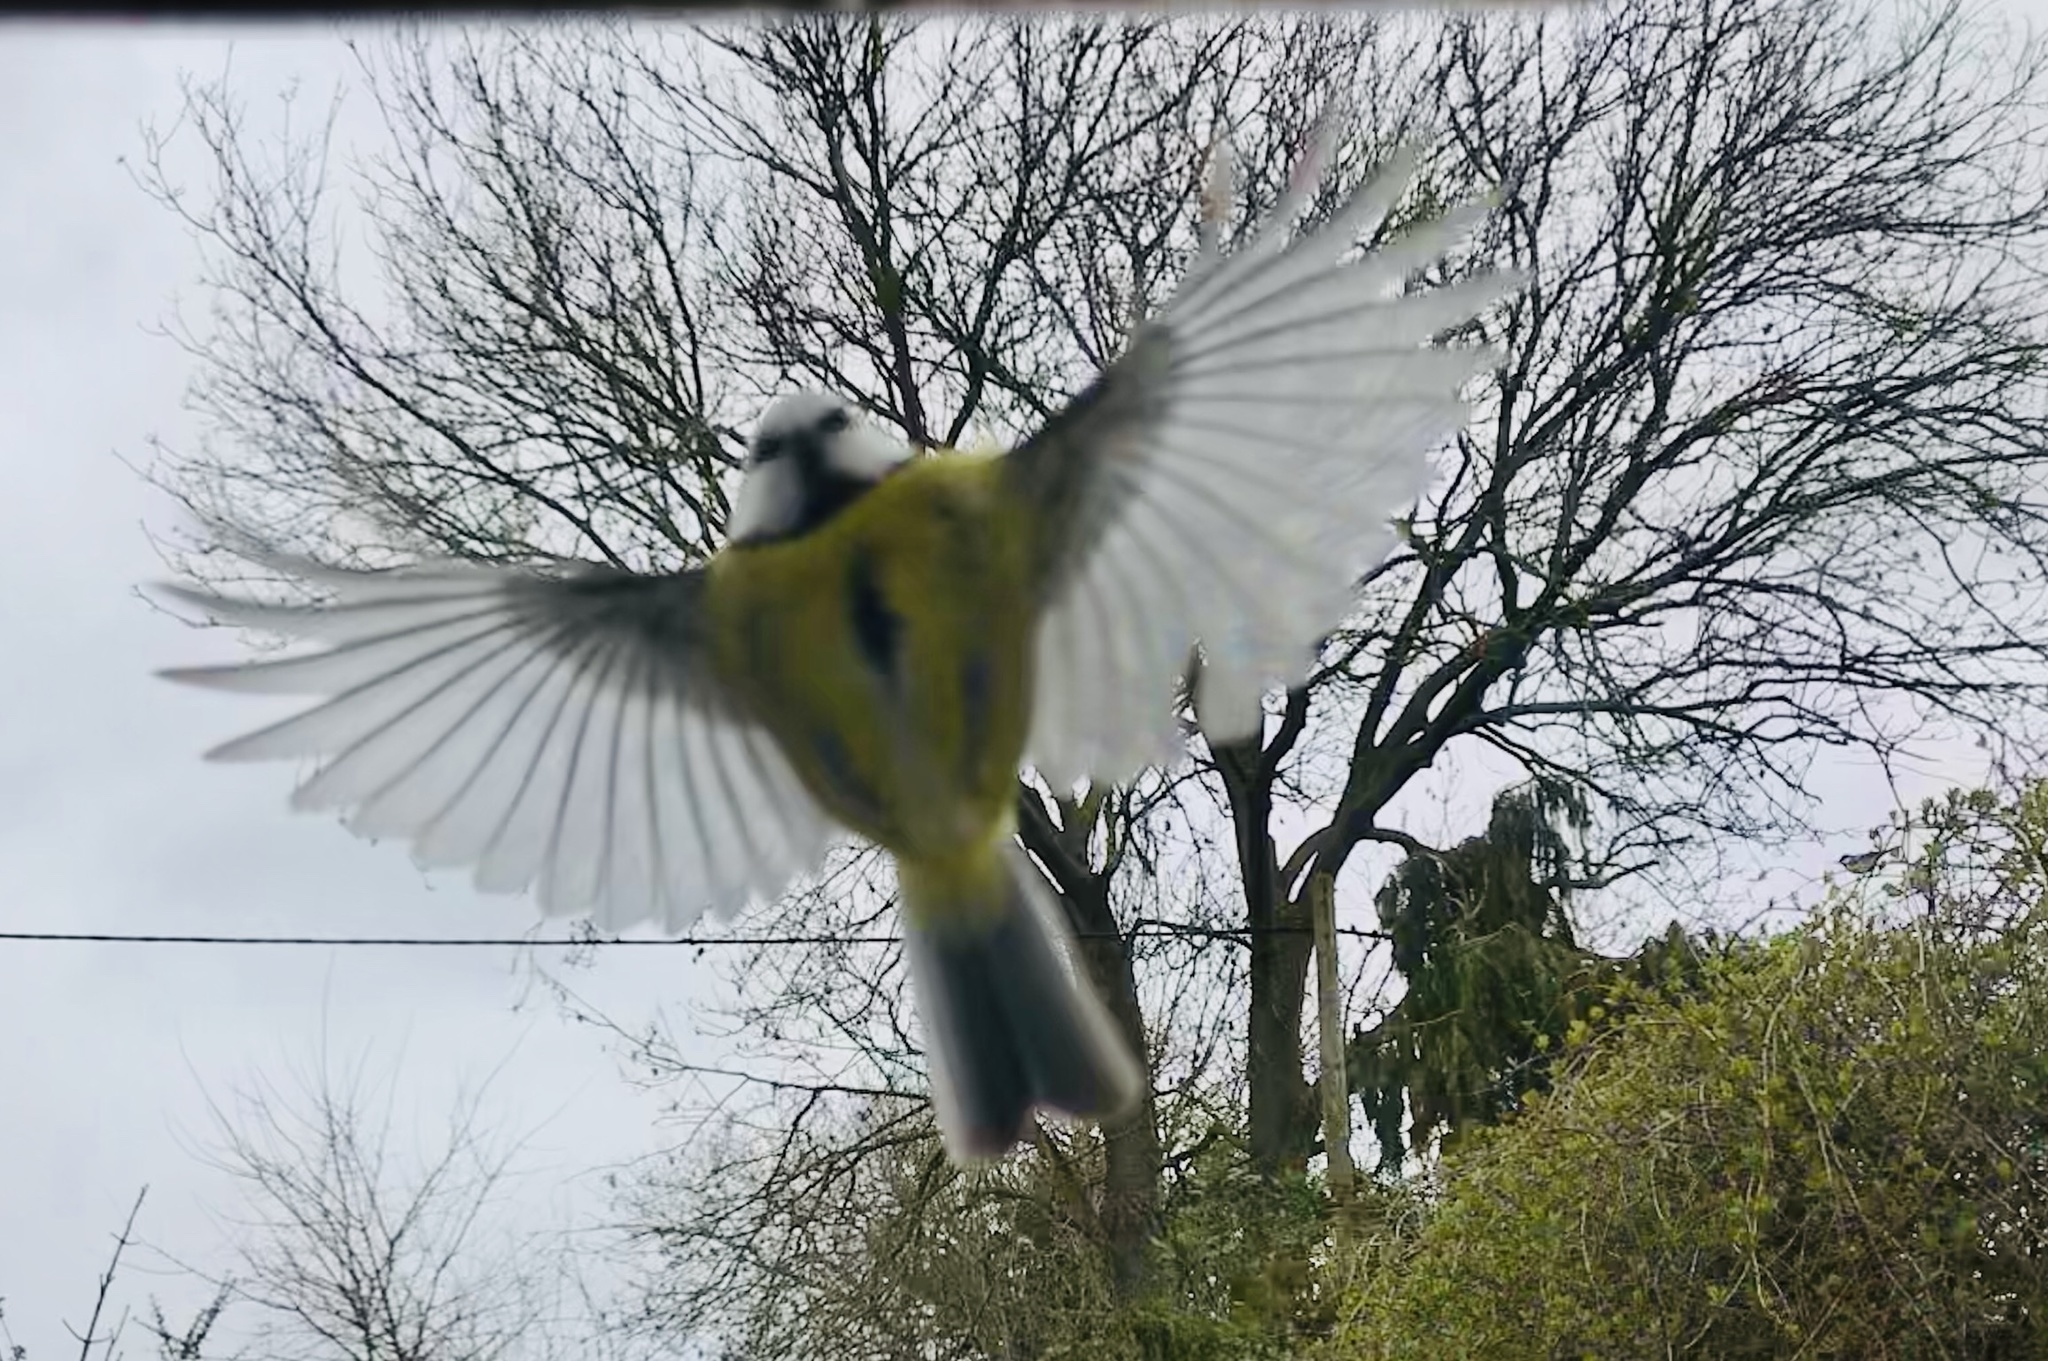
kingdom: Animalia
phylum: Chordata
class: Aves
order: Passeriformes
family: Paridae
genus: Cyanistes
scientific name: Cyanistes caeruleus
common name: Eurasian blue tit
